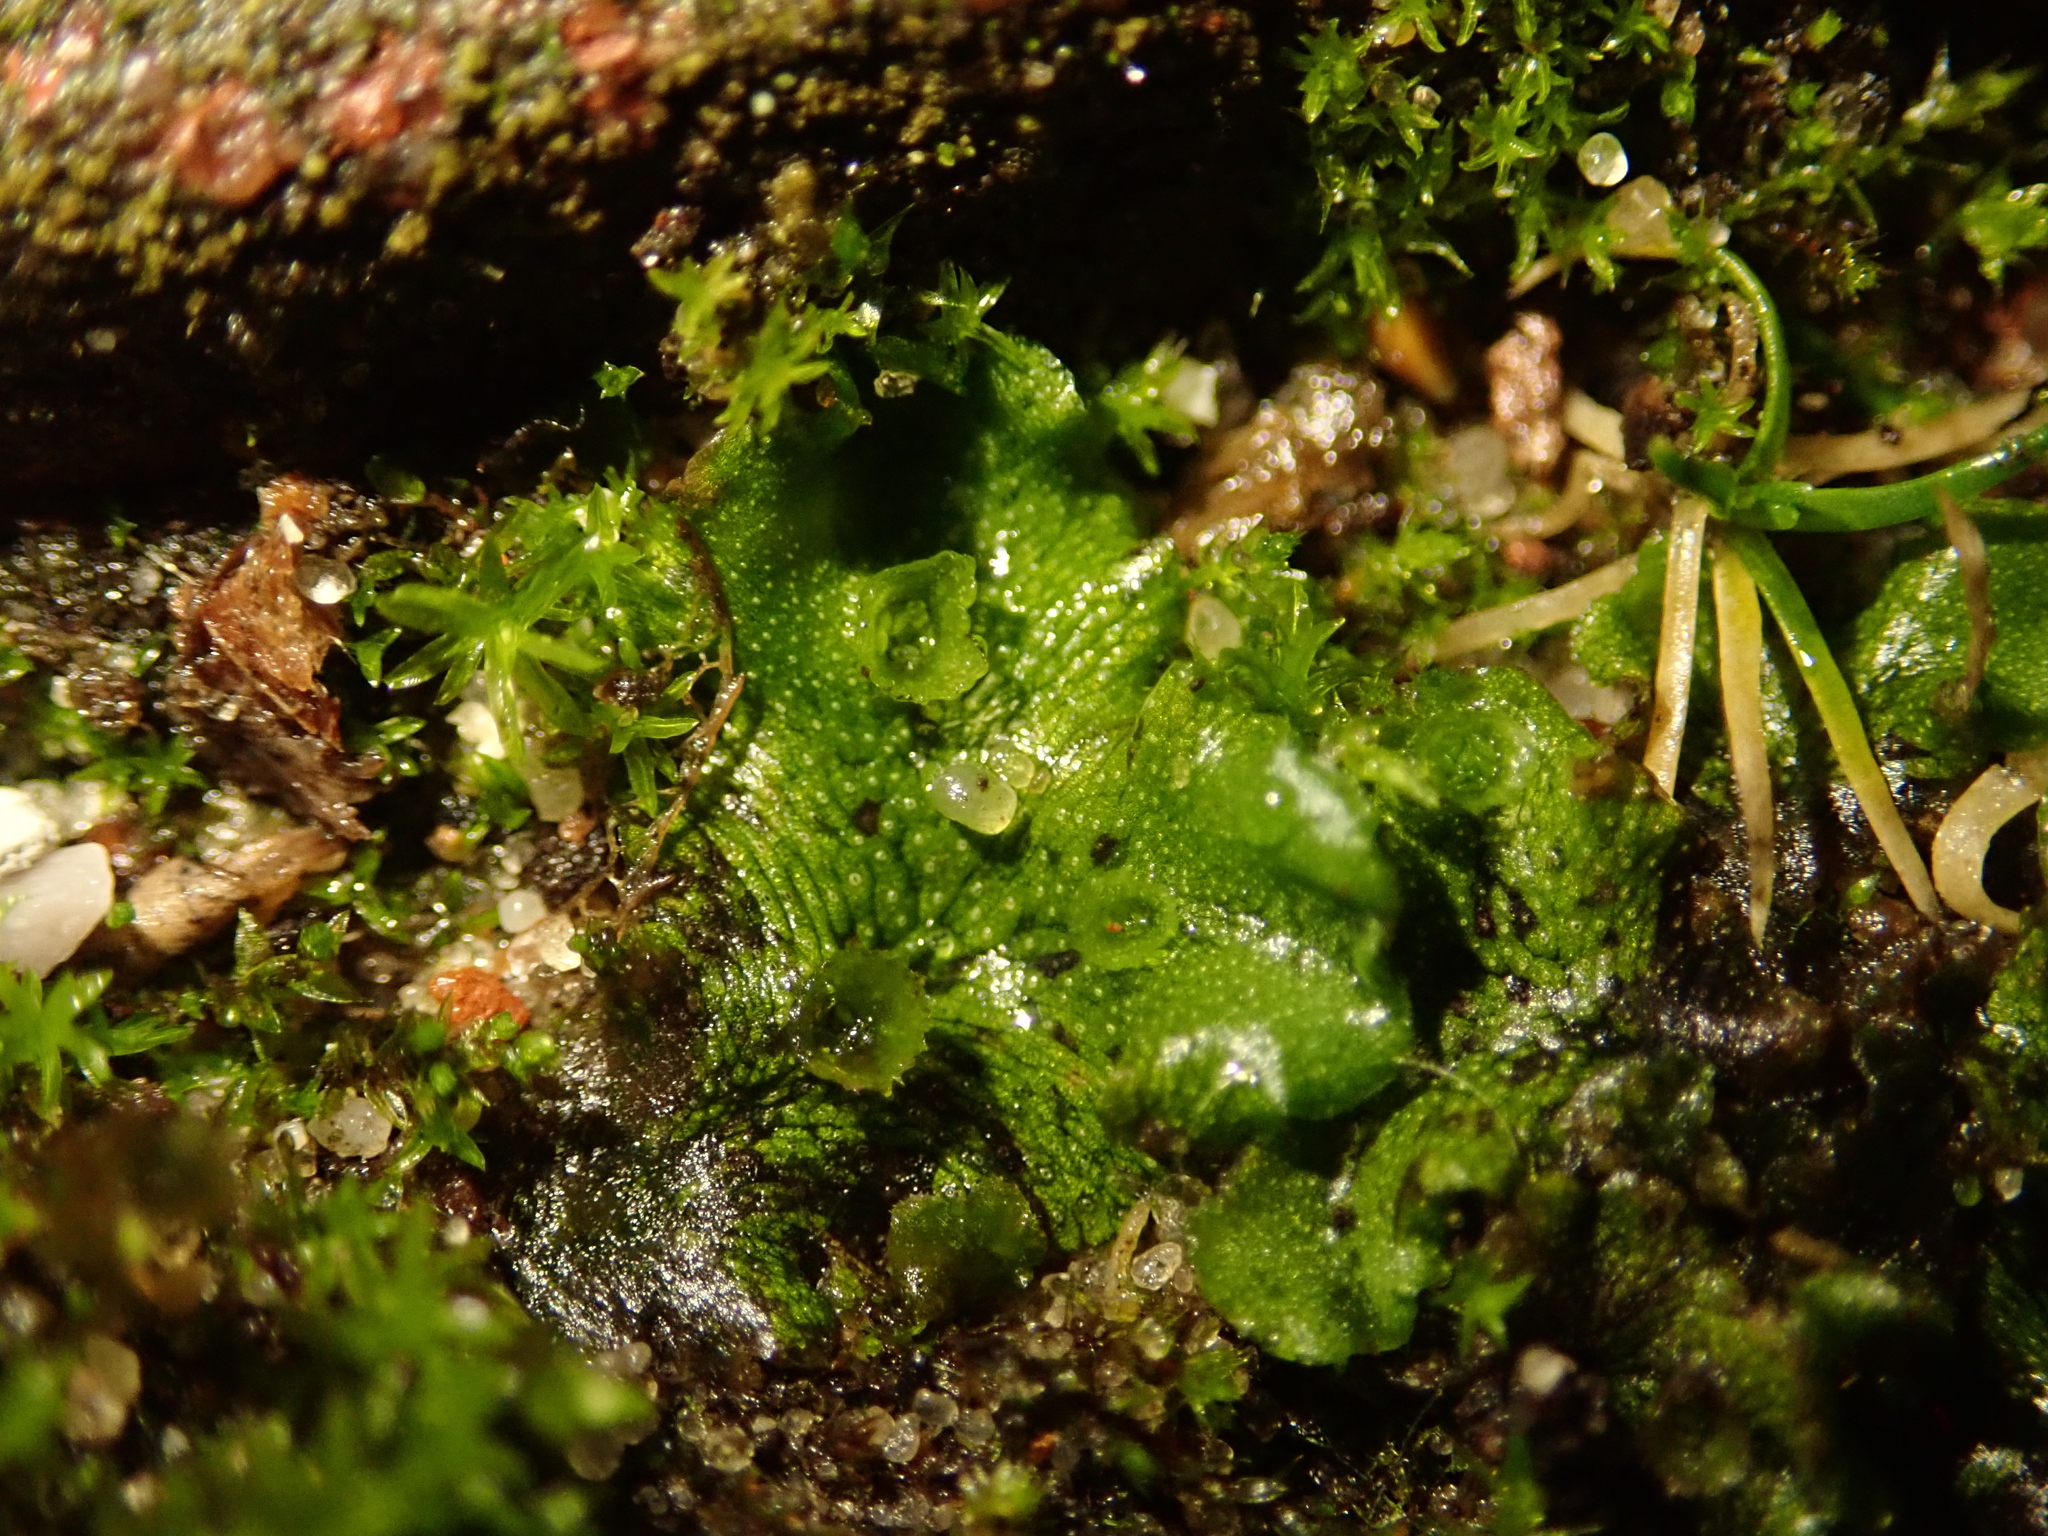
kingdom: Plantae
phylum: Marchantiophyta
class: Marchantiopsida
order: Marchantiales
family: Marchantiaceae
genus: Marchantia
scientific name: Marchantia polymorpha
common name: Common liverwort
